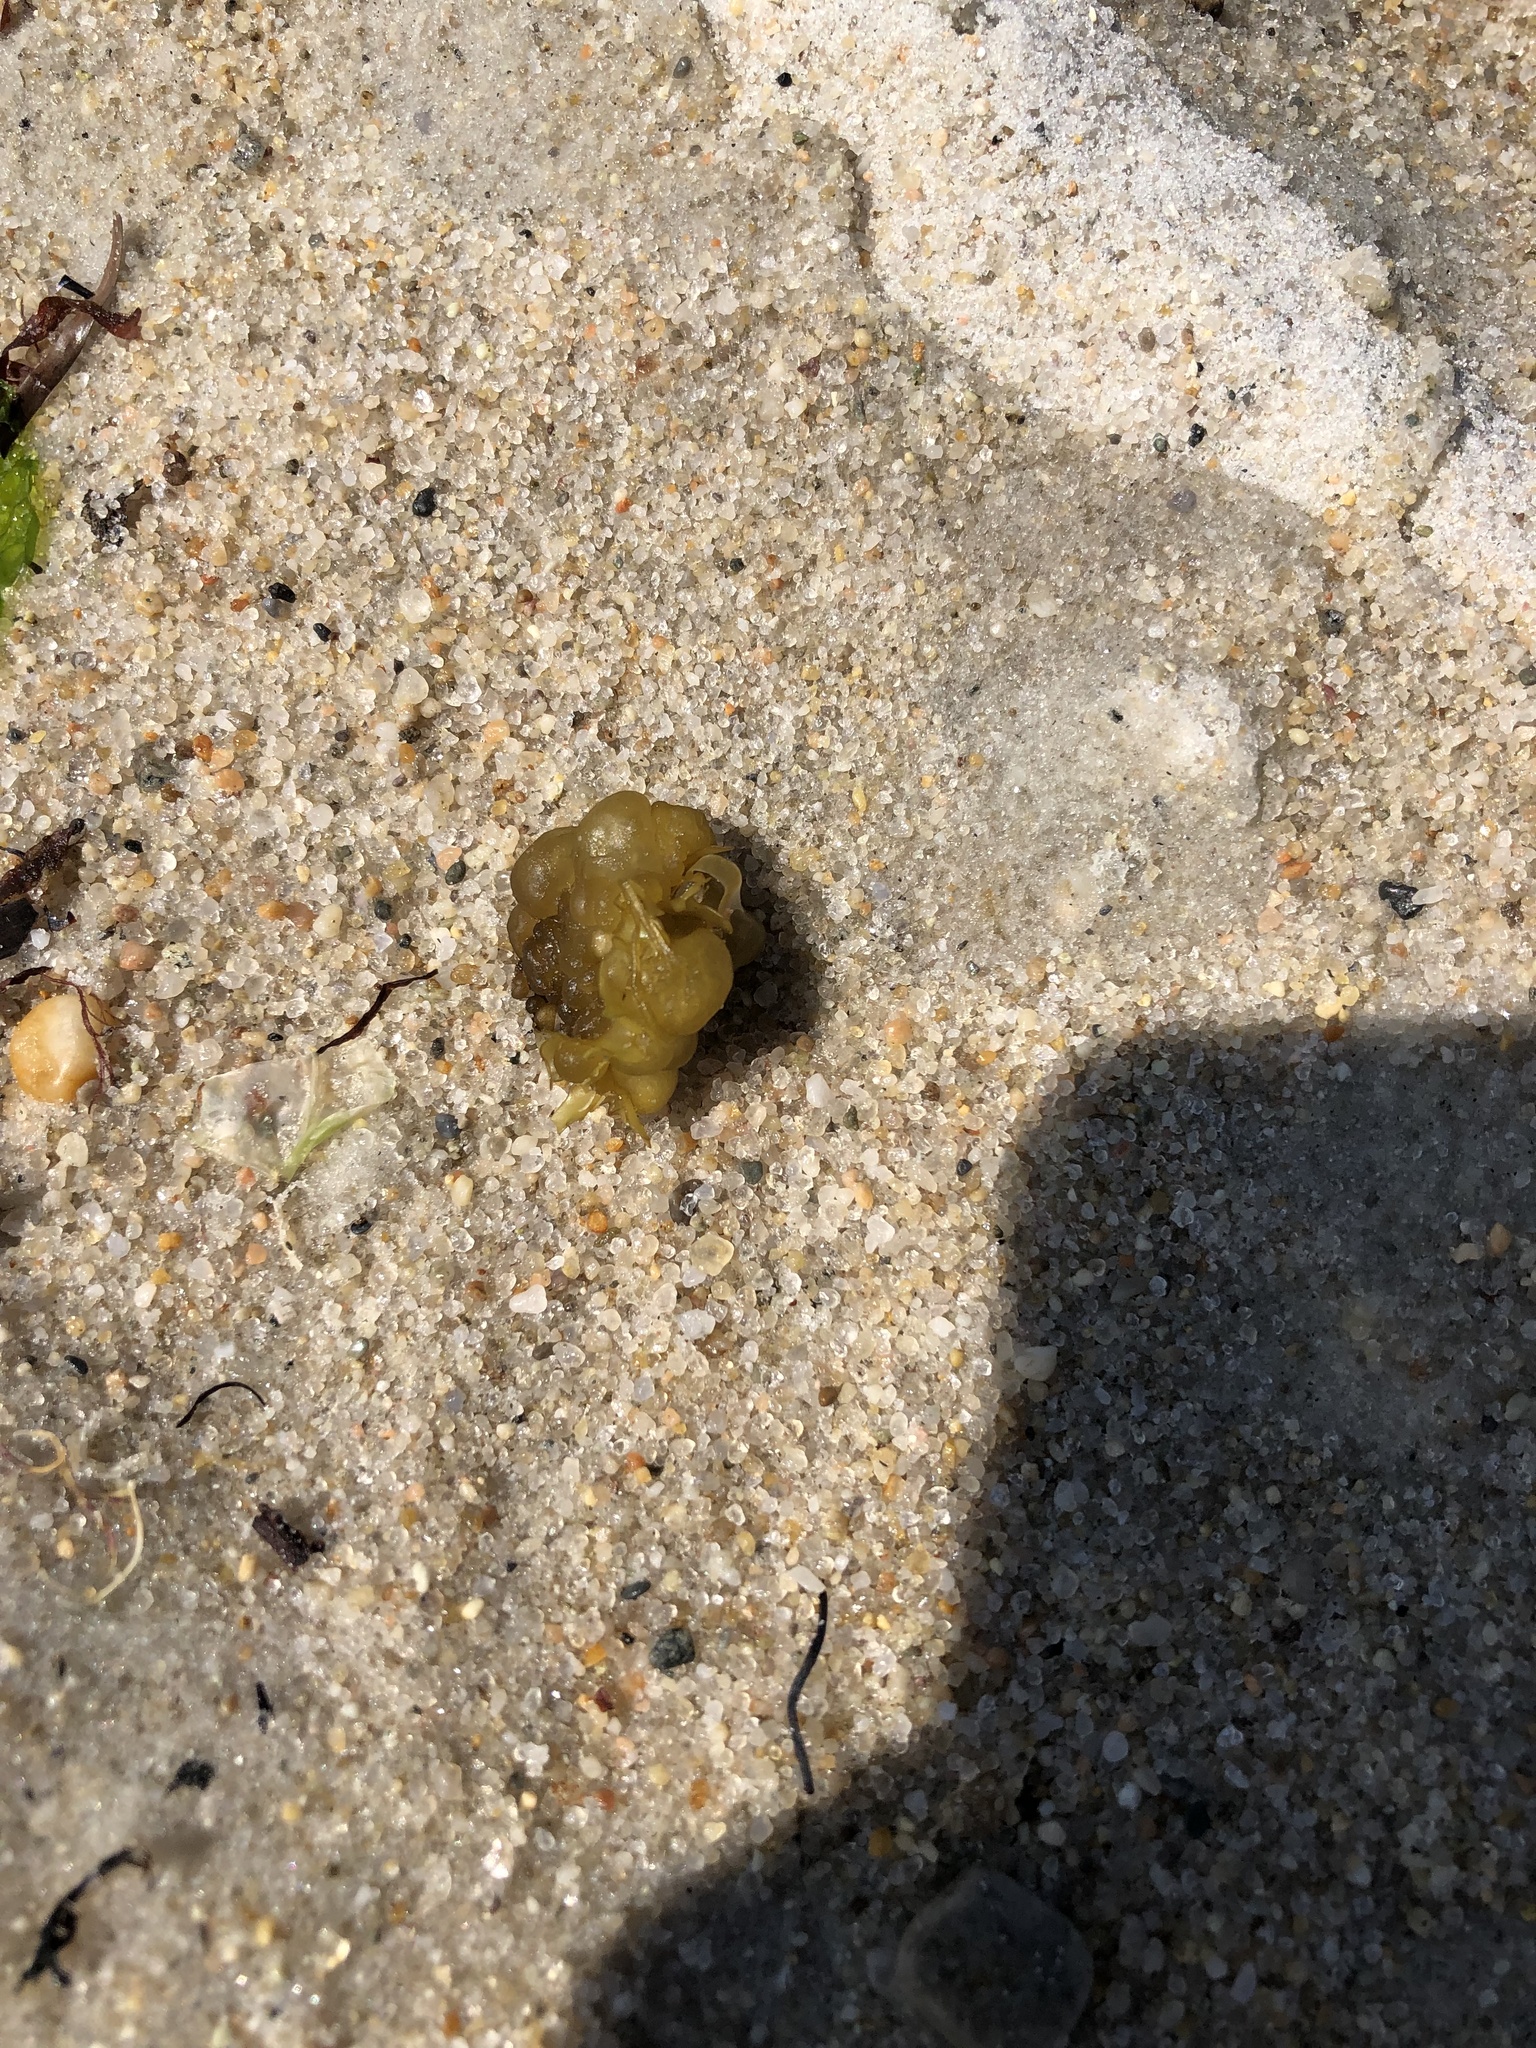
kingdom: Chromista
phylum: Ochrophyta
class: Phaeophyceae
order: Scytosiphonales
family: Scytosiphonaceae
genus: Colpomenia
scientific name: Colpomenia peregrina
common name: Oyster thief
